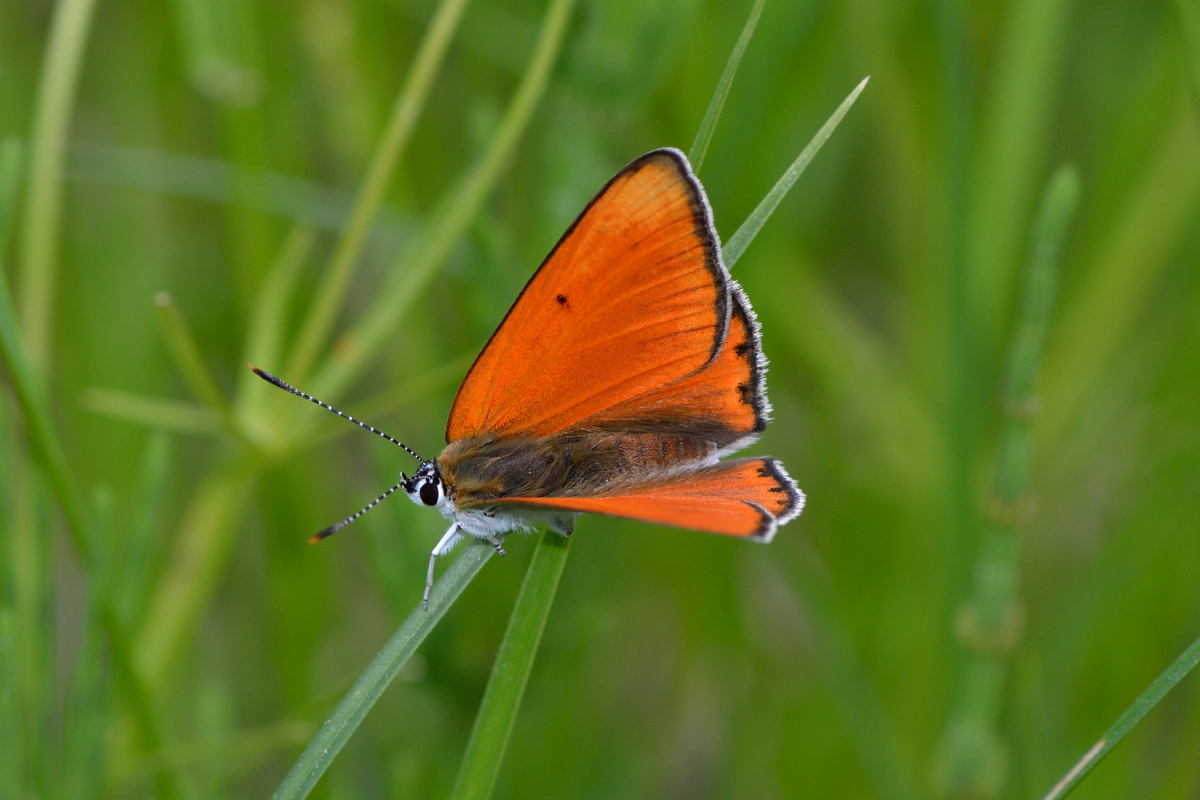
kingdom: Animalia
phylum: Arthropoda
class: Insecta
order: Lepidoptera
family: Lycaenidae
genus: Lycaena
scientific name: Lycaena dispar
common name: Large copper
